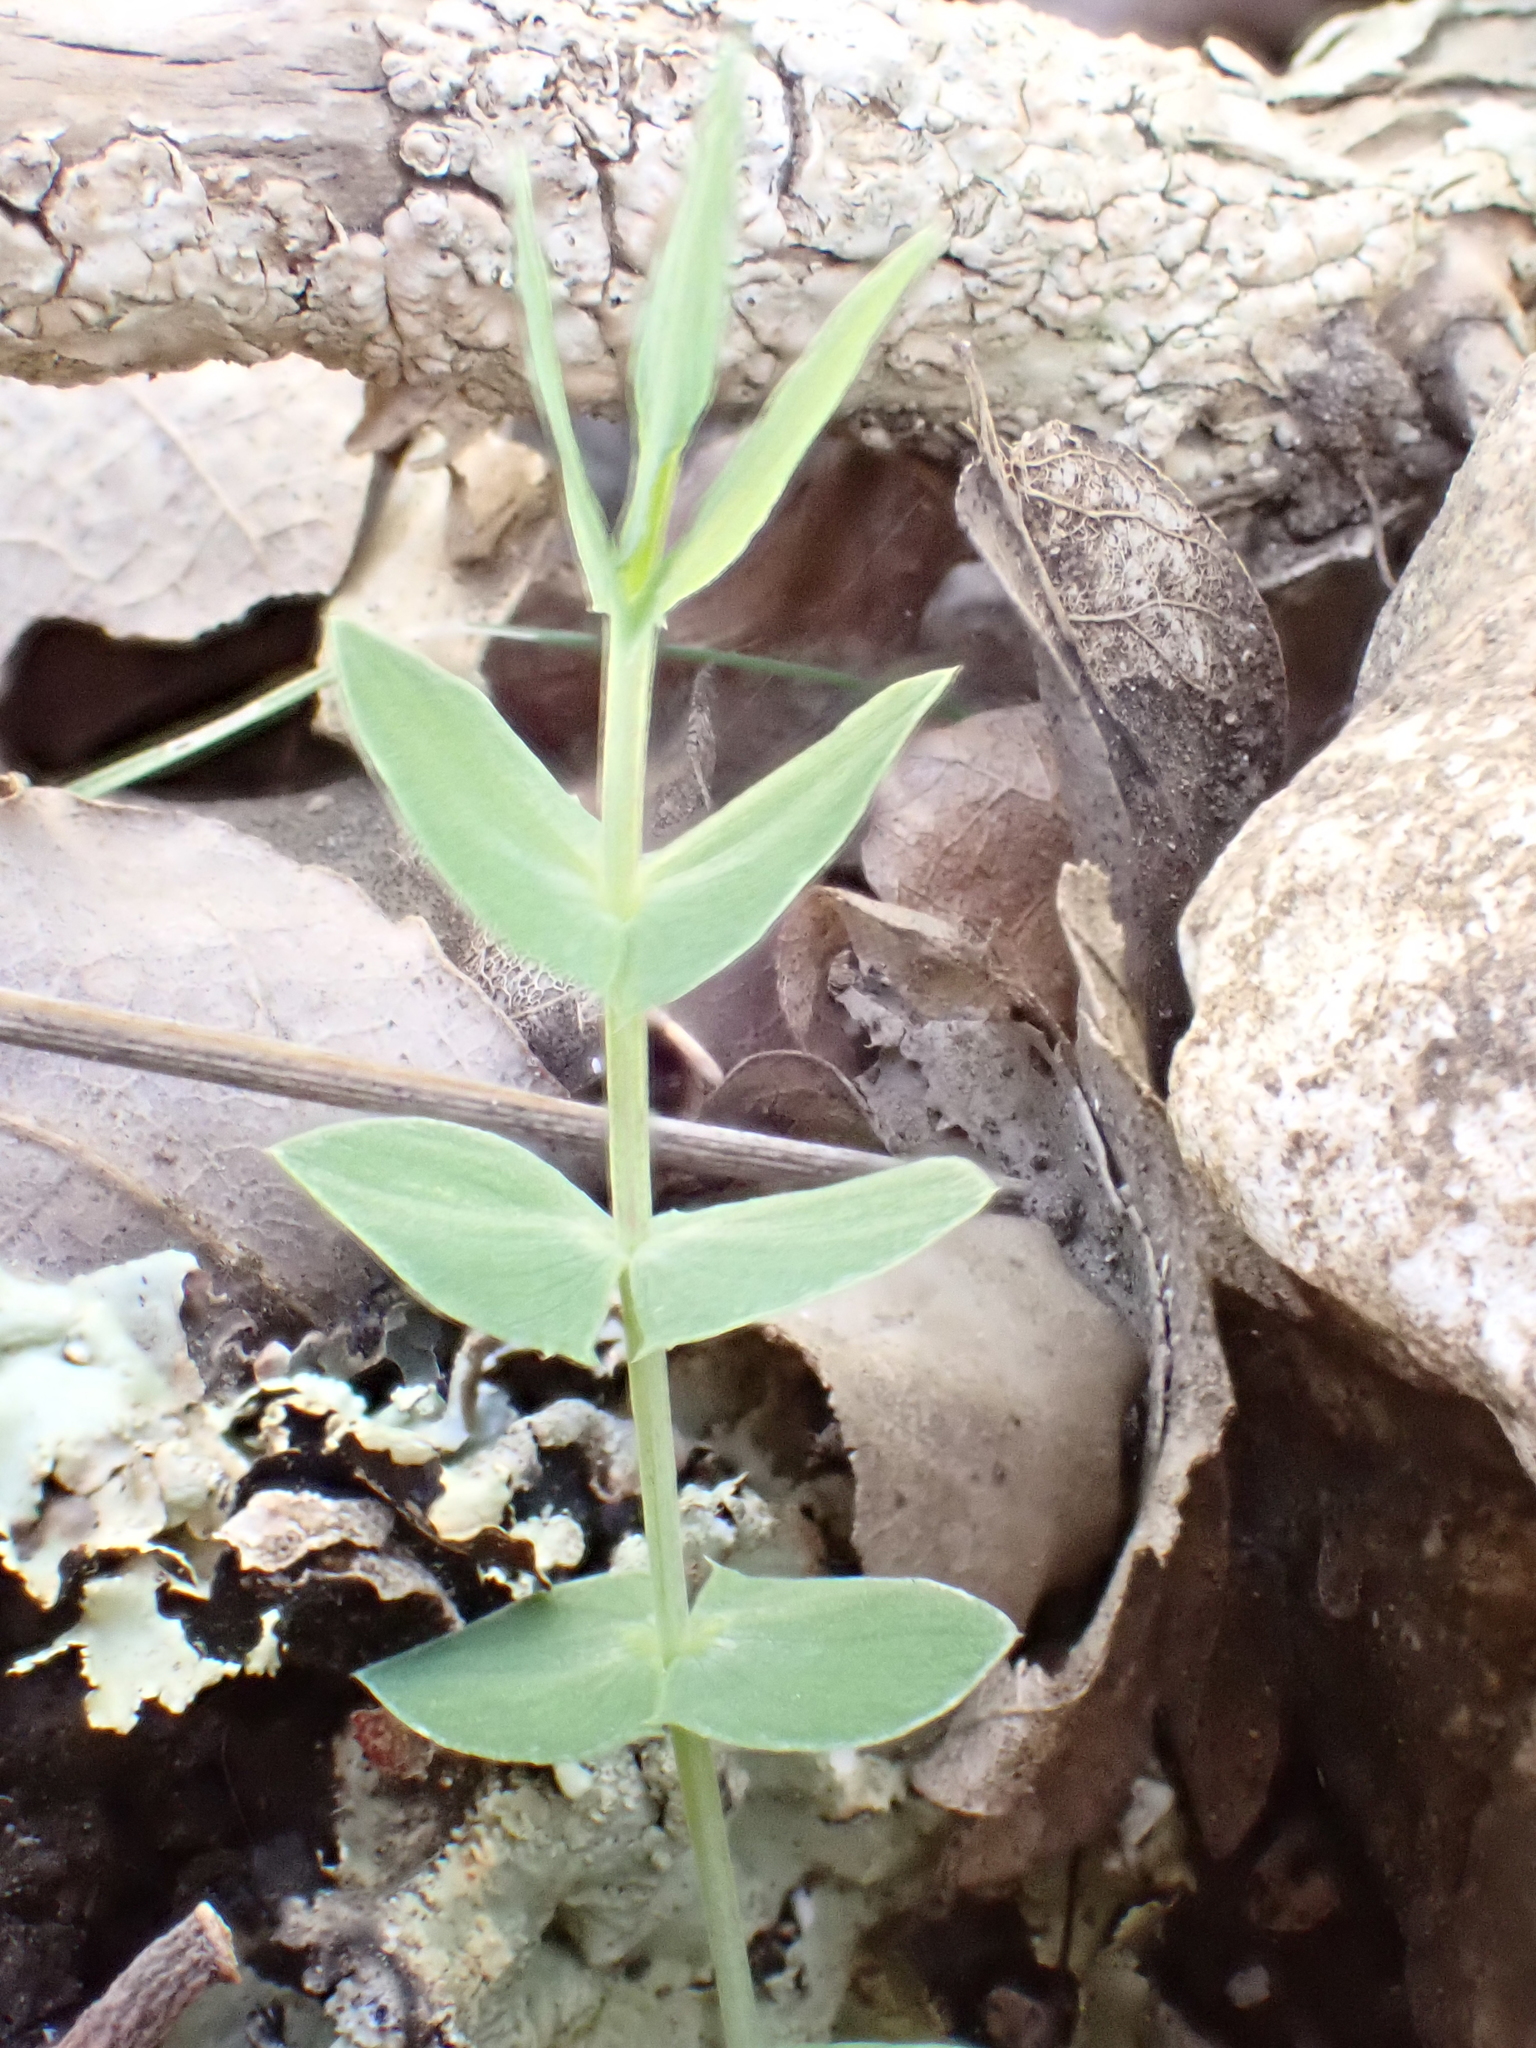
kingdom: Plantae
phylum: Tracheophyta
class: Magnoliopsida
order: Fabales
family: Fabaceae
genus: Lathyrus
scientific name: Lathyrus aphaca
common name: Yellow vetchling
